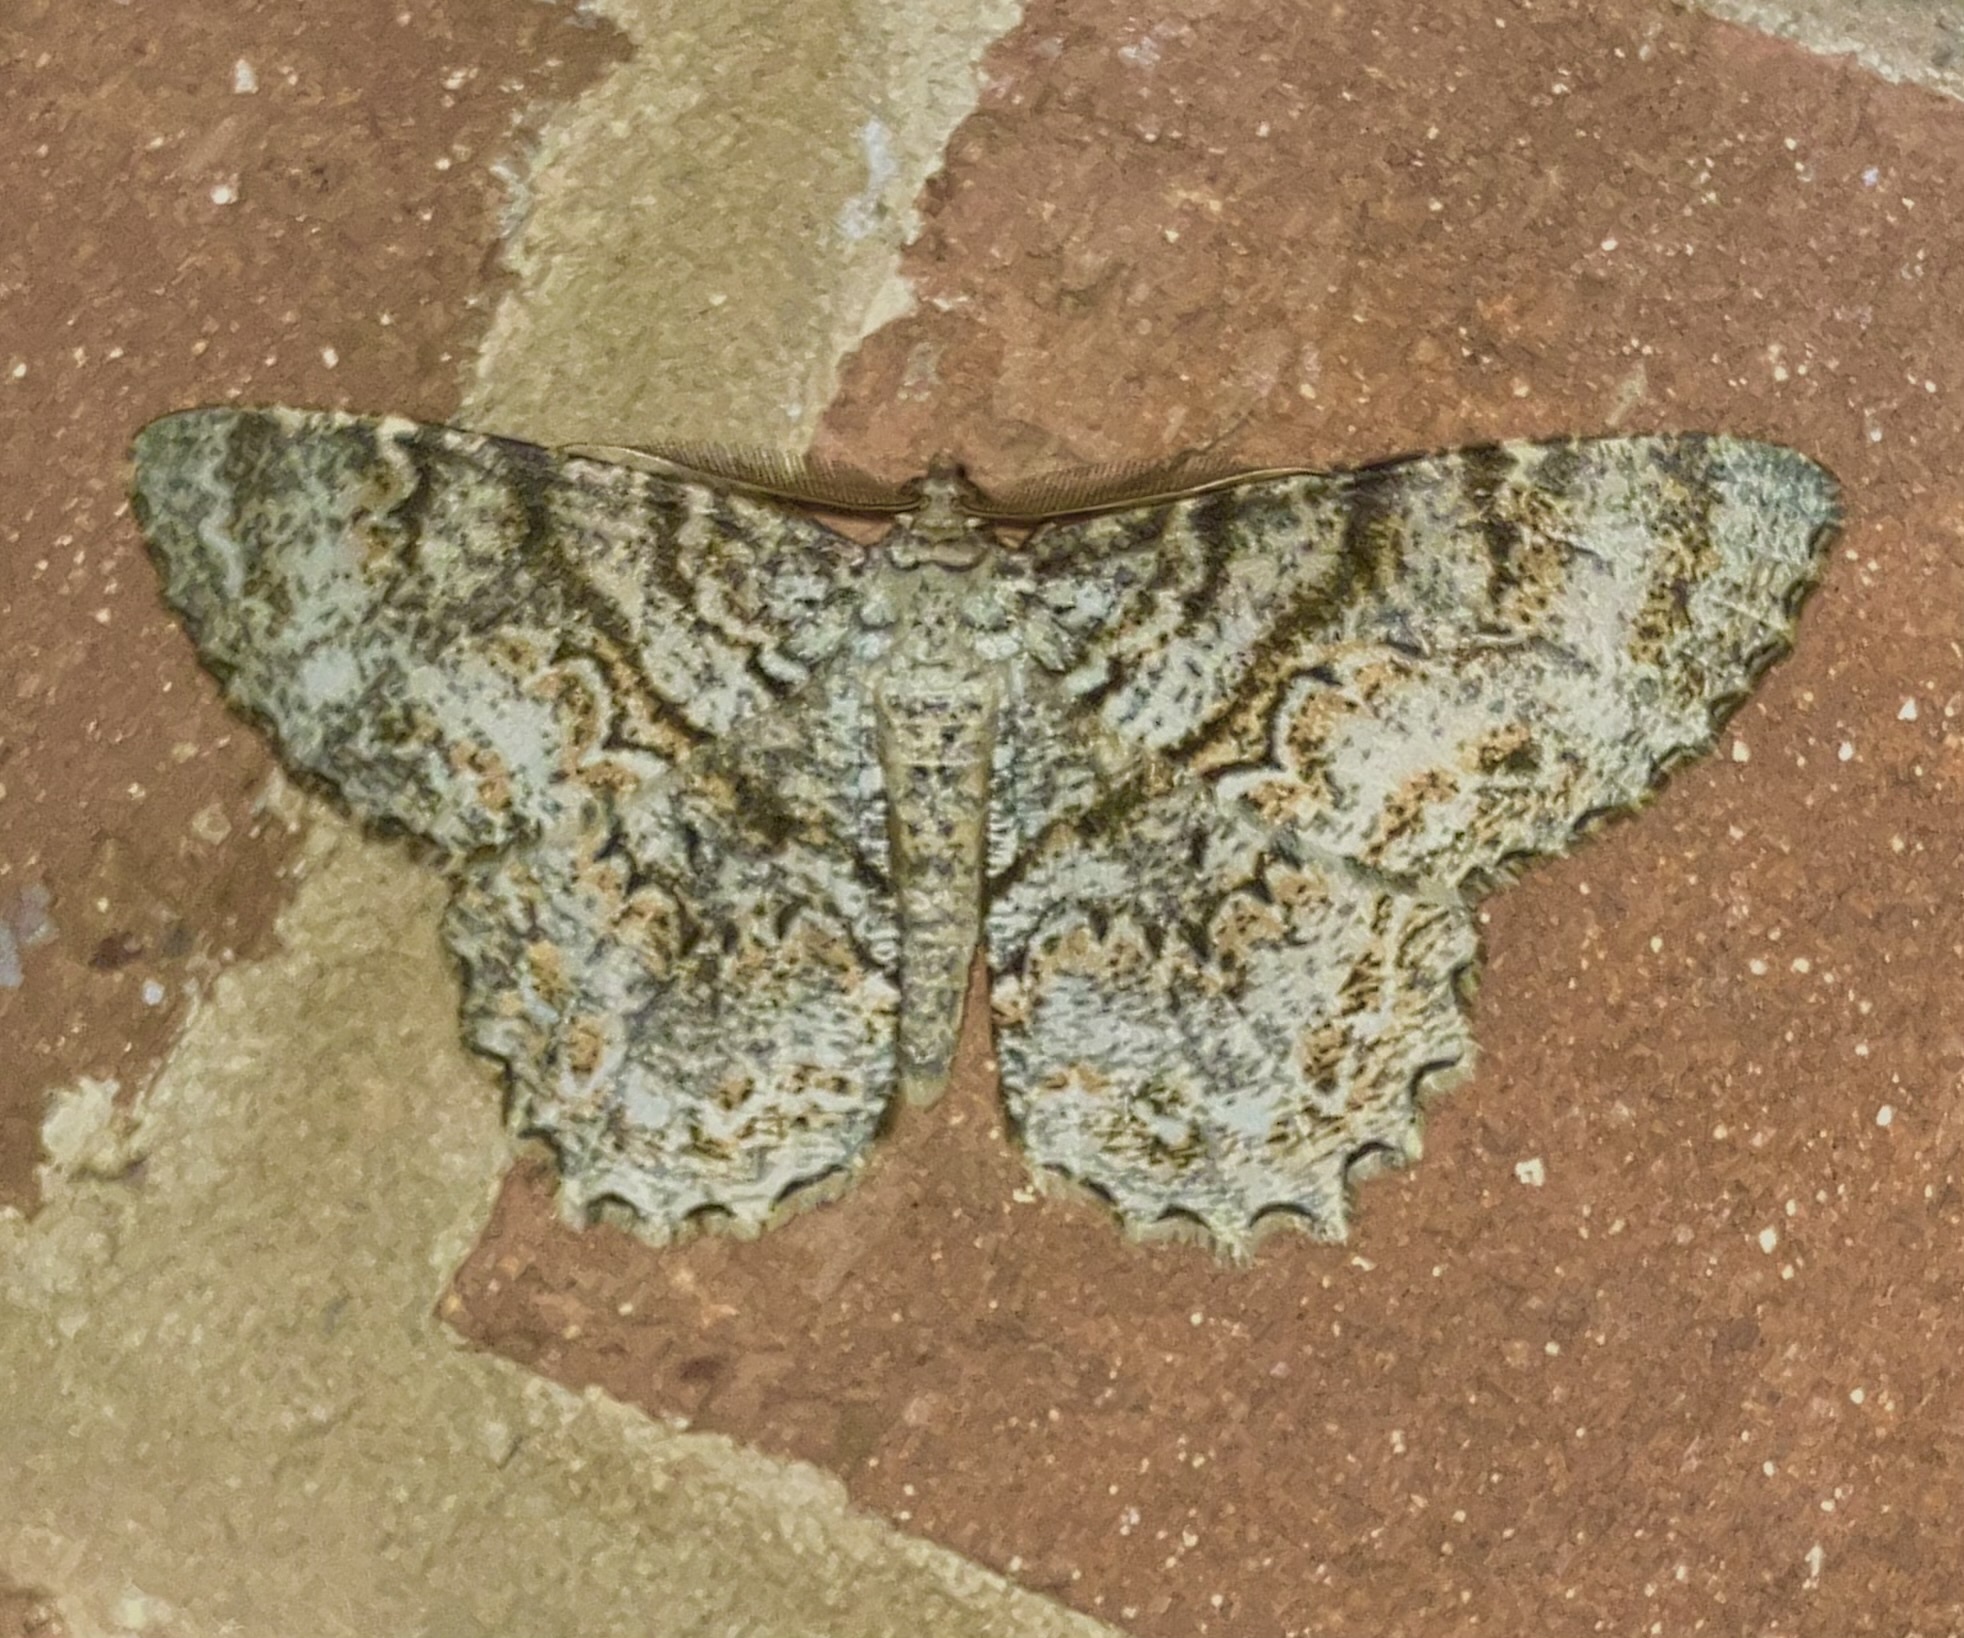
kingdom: Animalia
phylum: Arthropoda
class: Insecta
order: Lepidoptera
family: Geometridae
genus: Epimecis
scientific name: Epimecis hortaria
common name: Tulip-tree beauty
